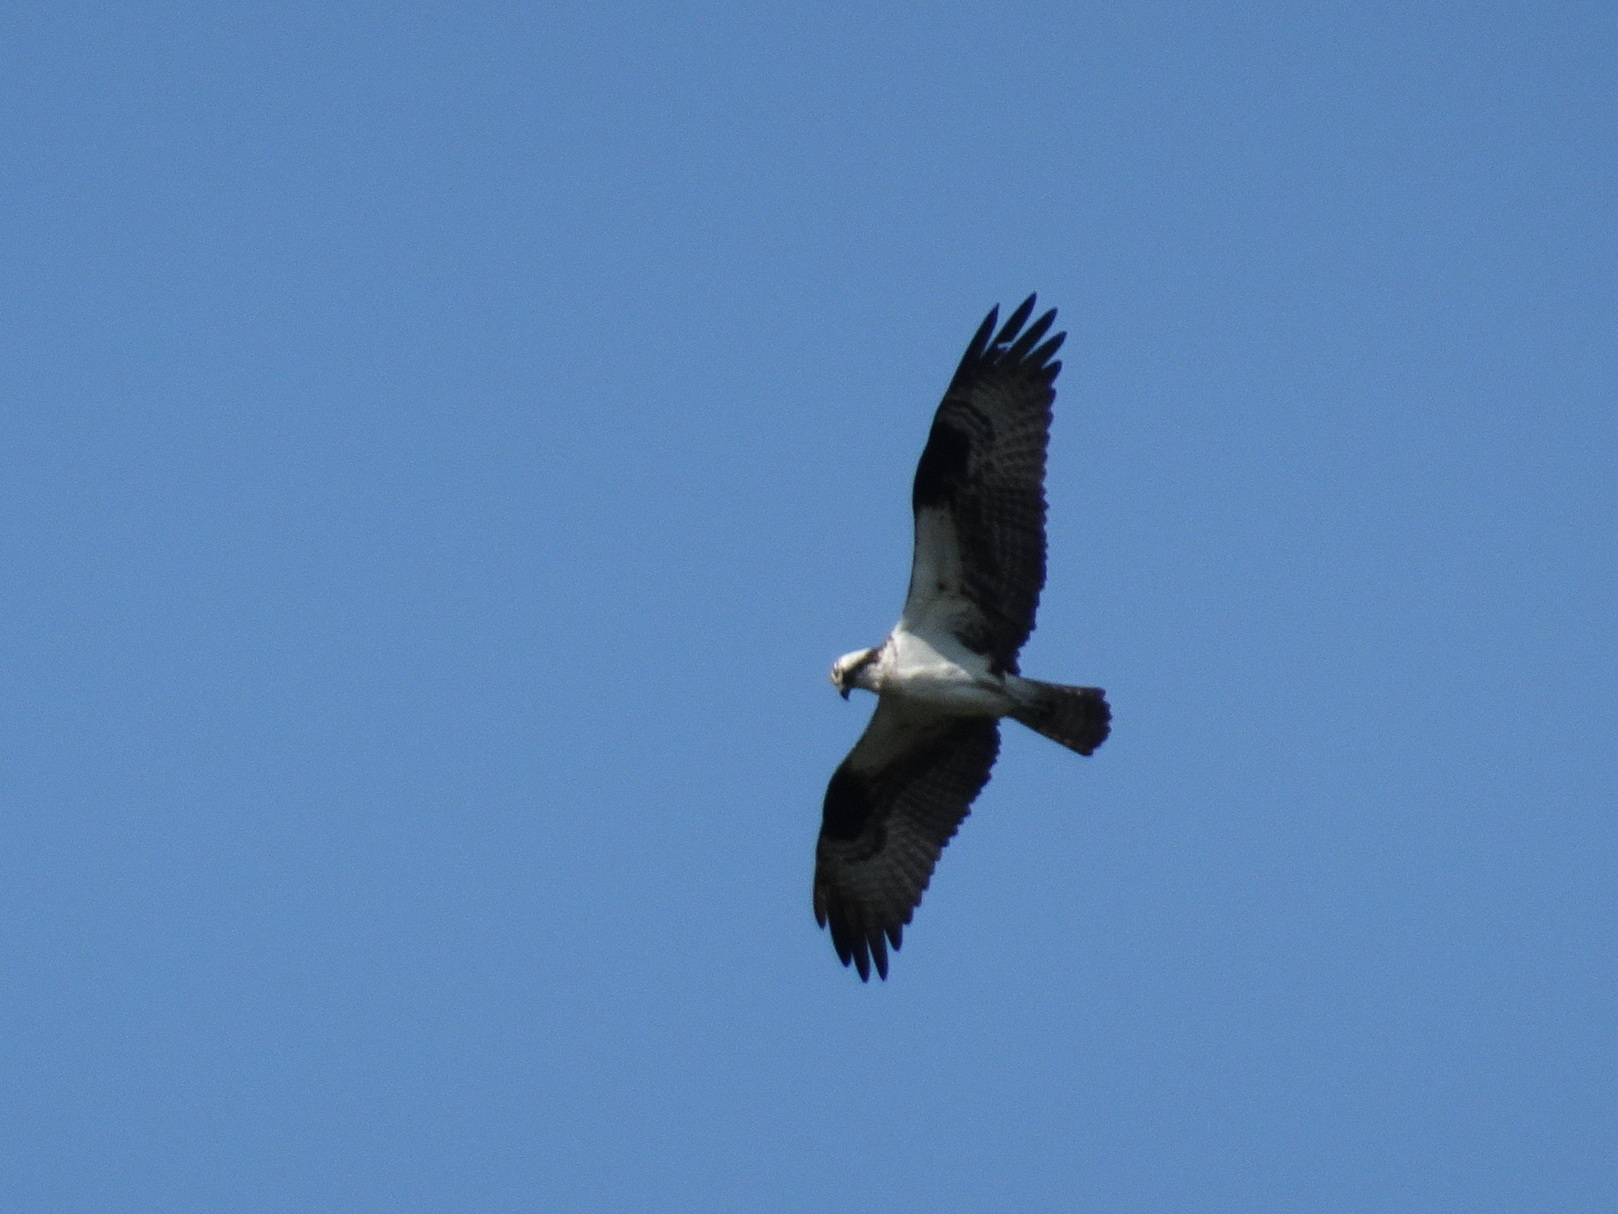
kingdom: Animalia
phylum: Chordata
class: Aves
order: Accipitriformes
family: Pandionidae
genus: Pandion
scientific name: Pandion haliaetus
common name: Osprey
